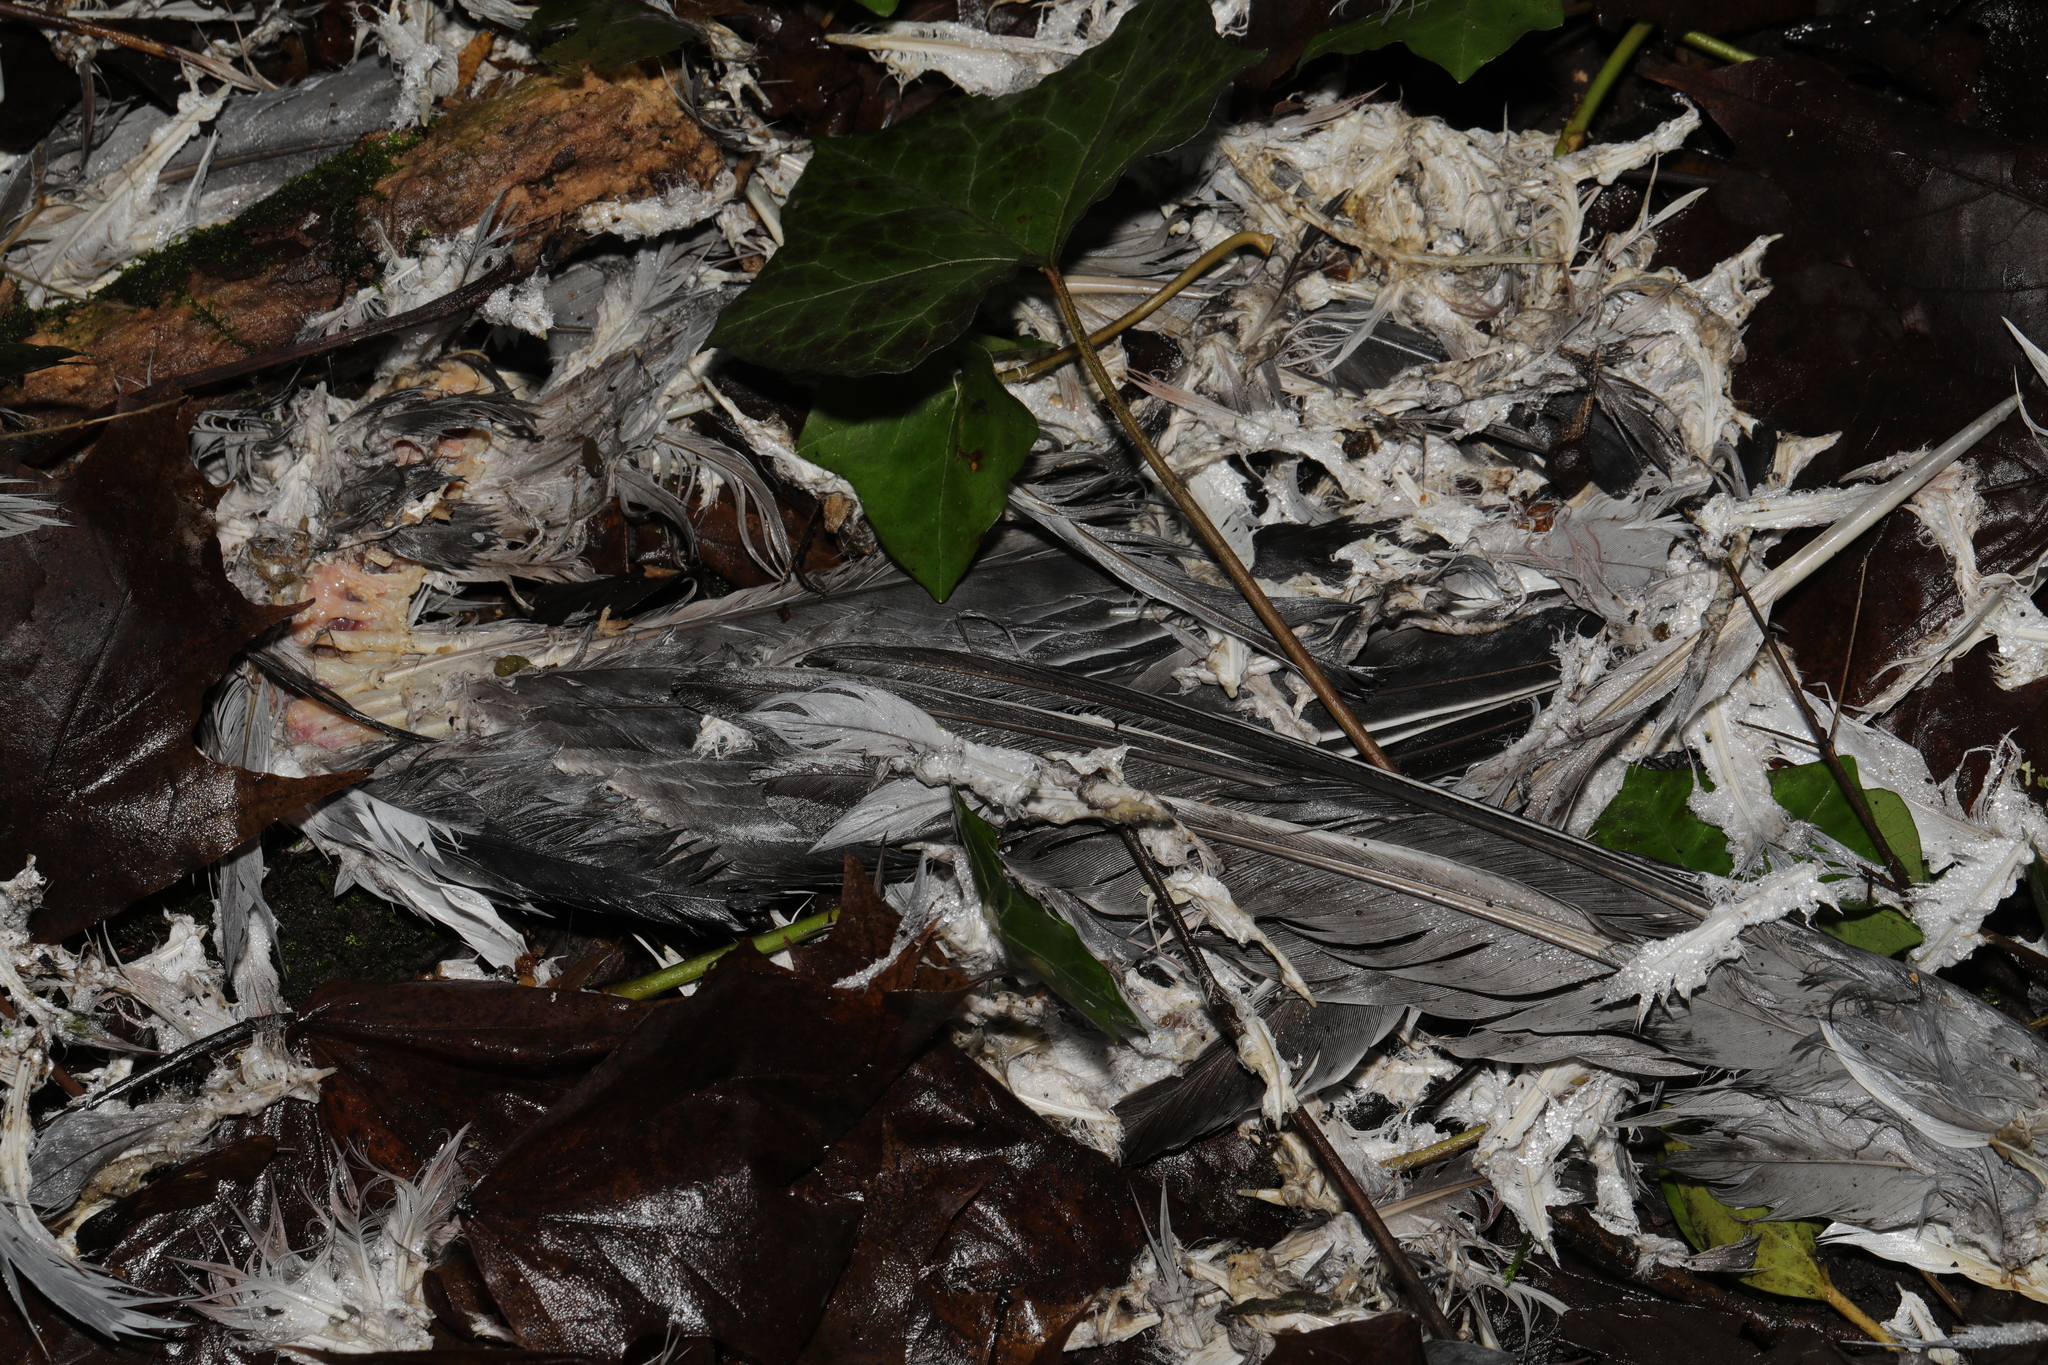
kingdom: Animalia
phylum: Chordata
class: Aves
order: Columbiformes
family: Columbidae
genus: Columba
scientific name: Columba palumbus
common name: Common wood pigeon
